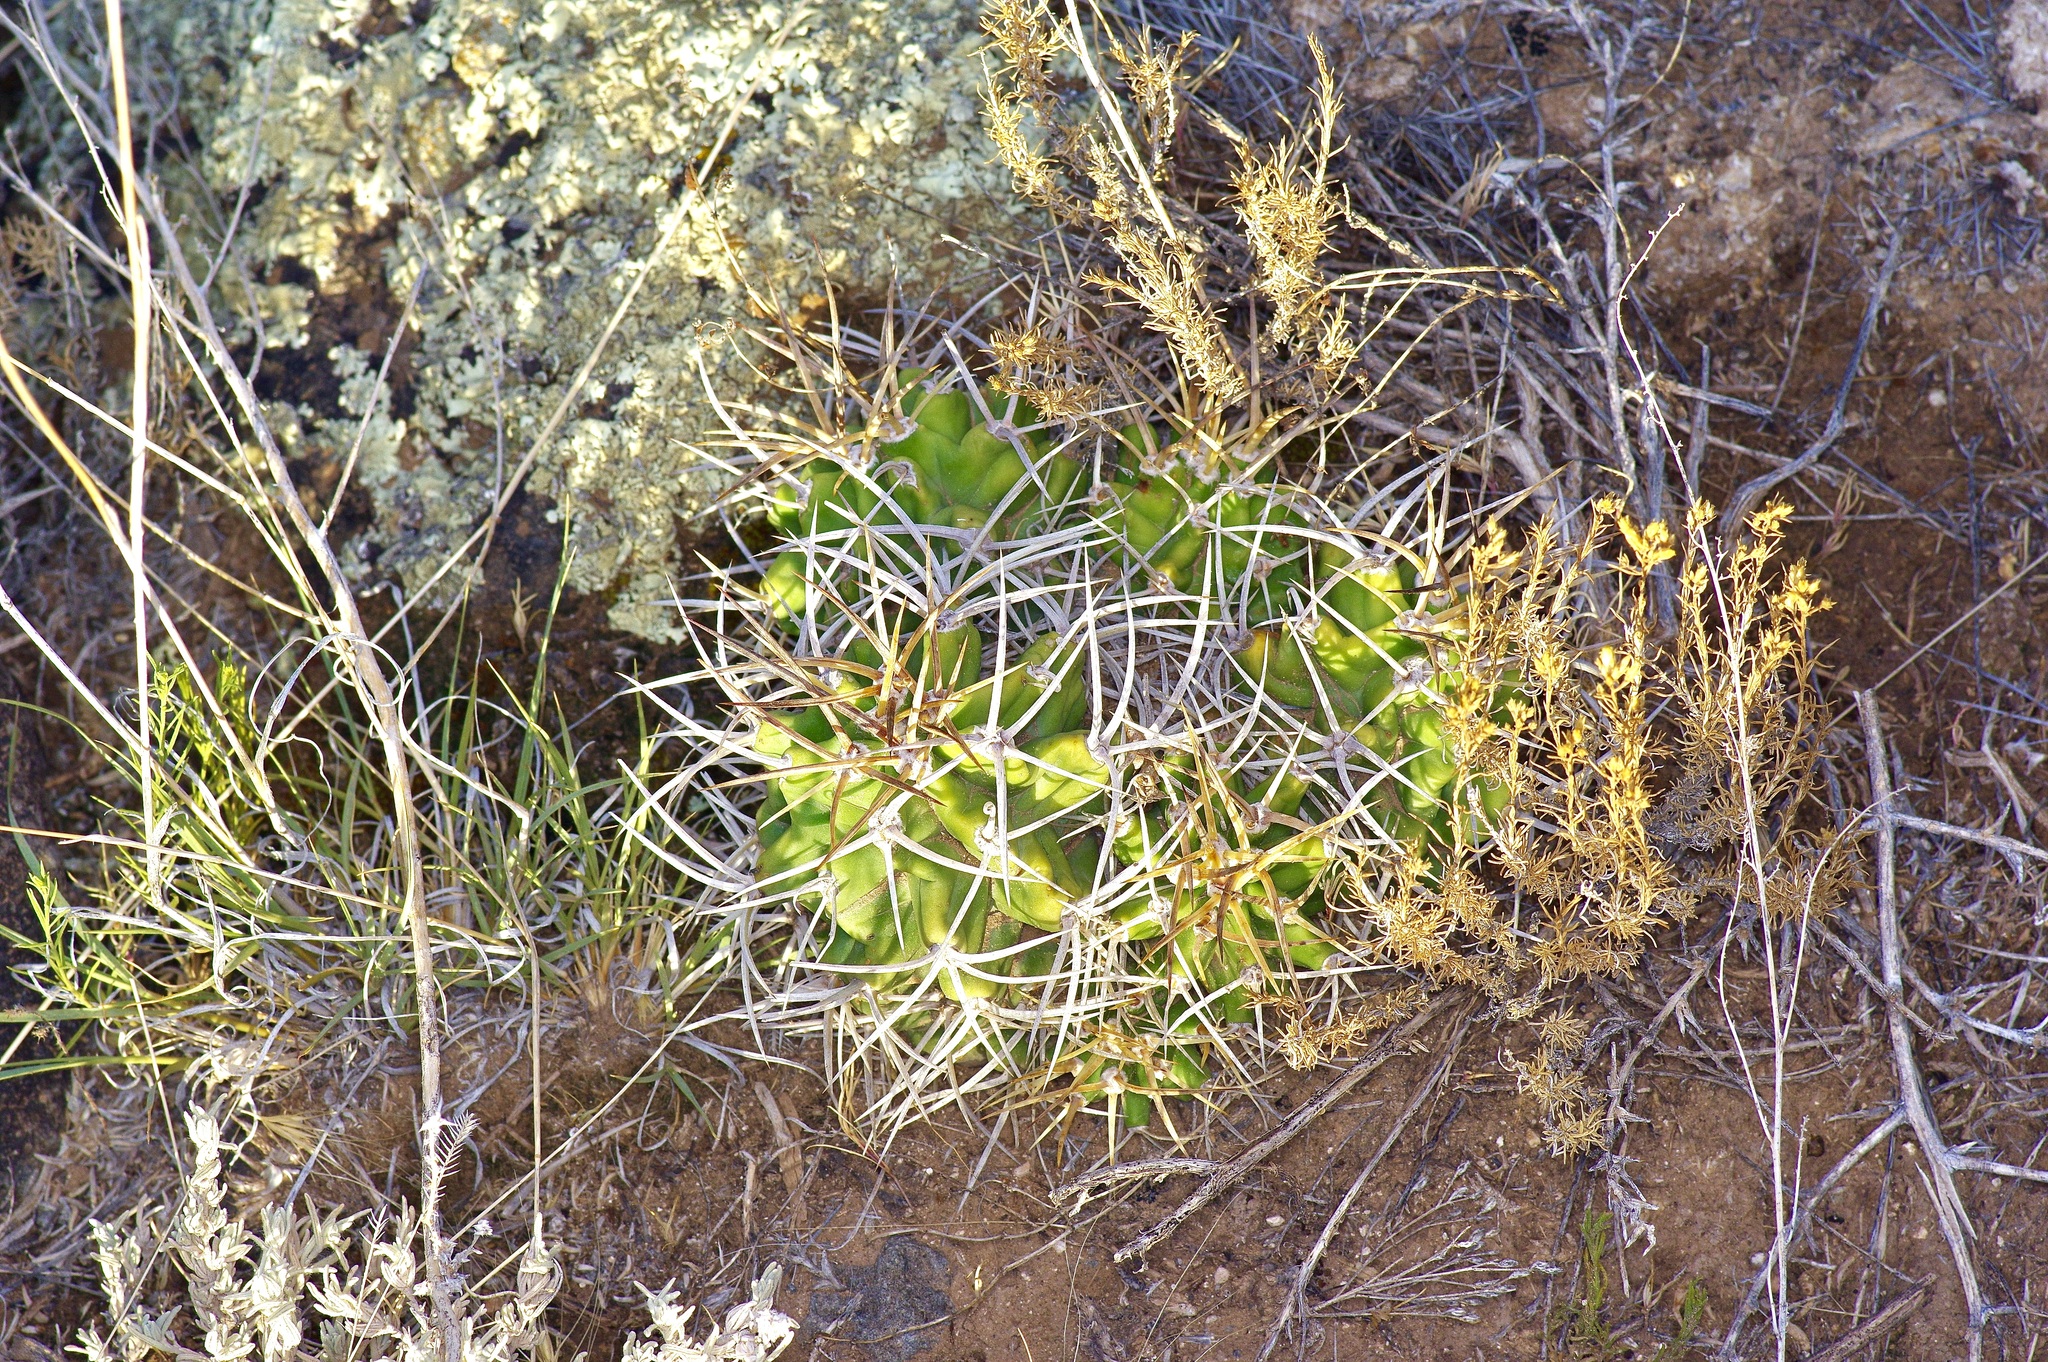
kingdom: Plantae
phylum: Tracheophyta
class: Magnoliopsida
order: Caryophyllales
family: Cactaceae
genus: Echinocereus
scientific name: Echinocereus triglochidiatus
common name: Claretcup hedgehog
